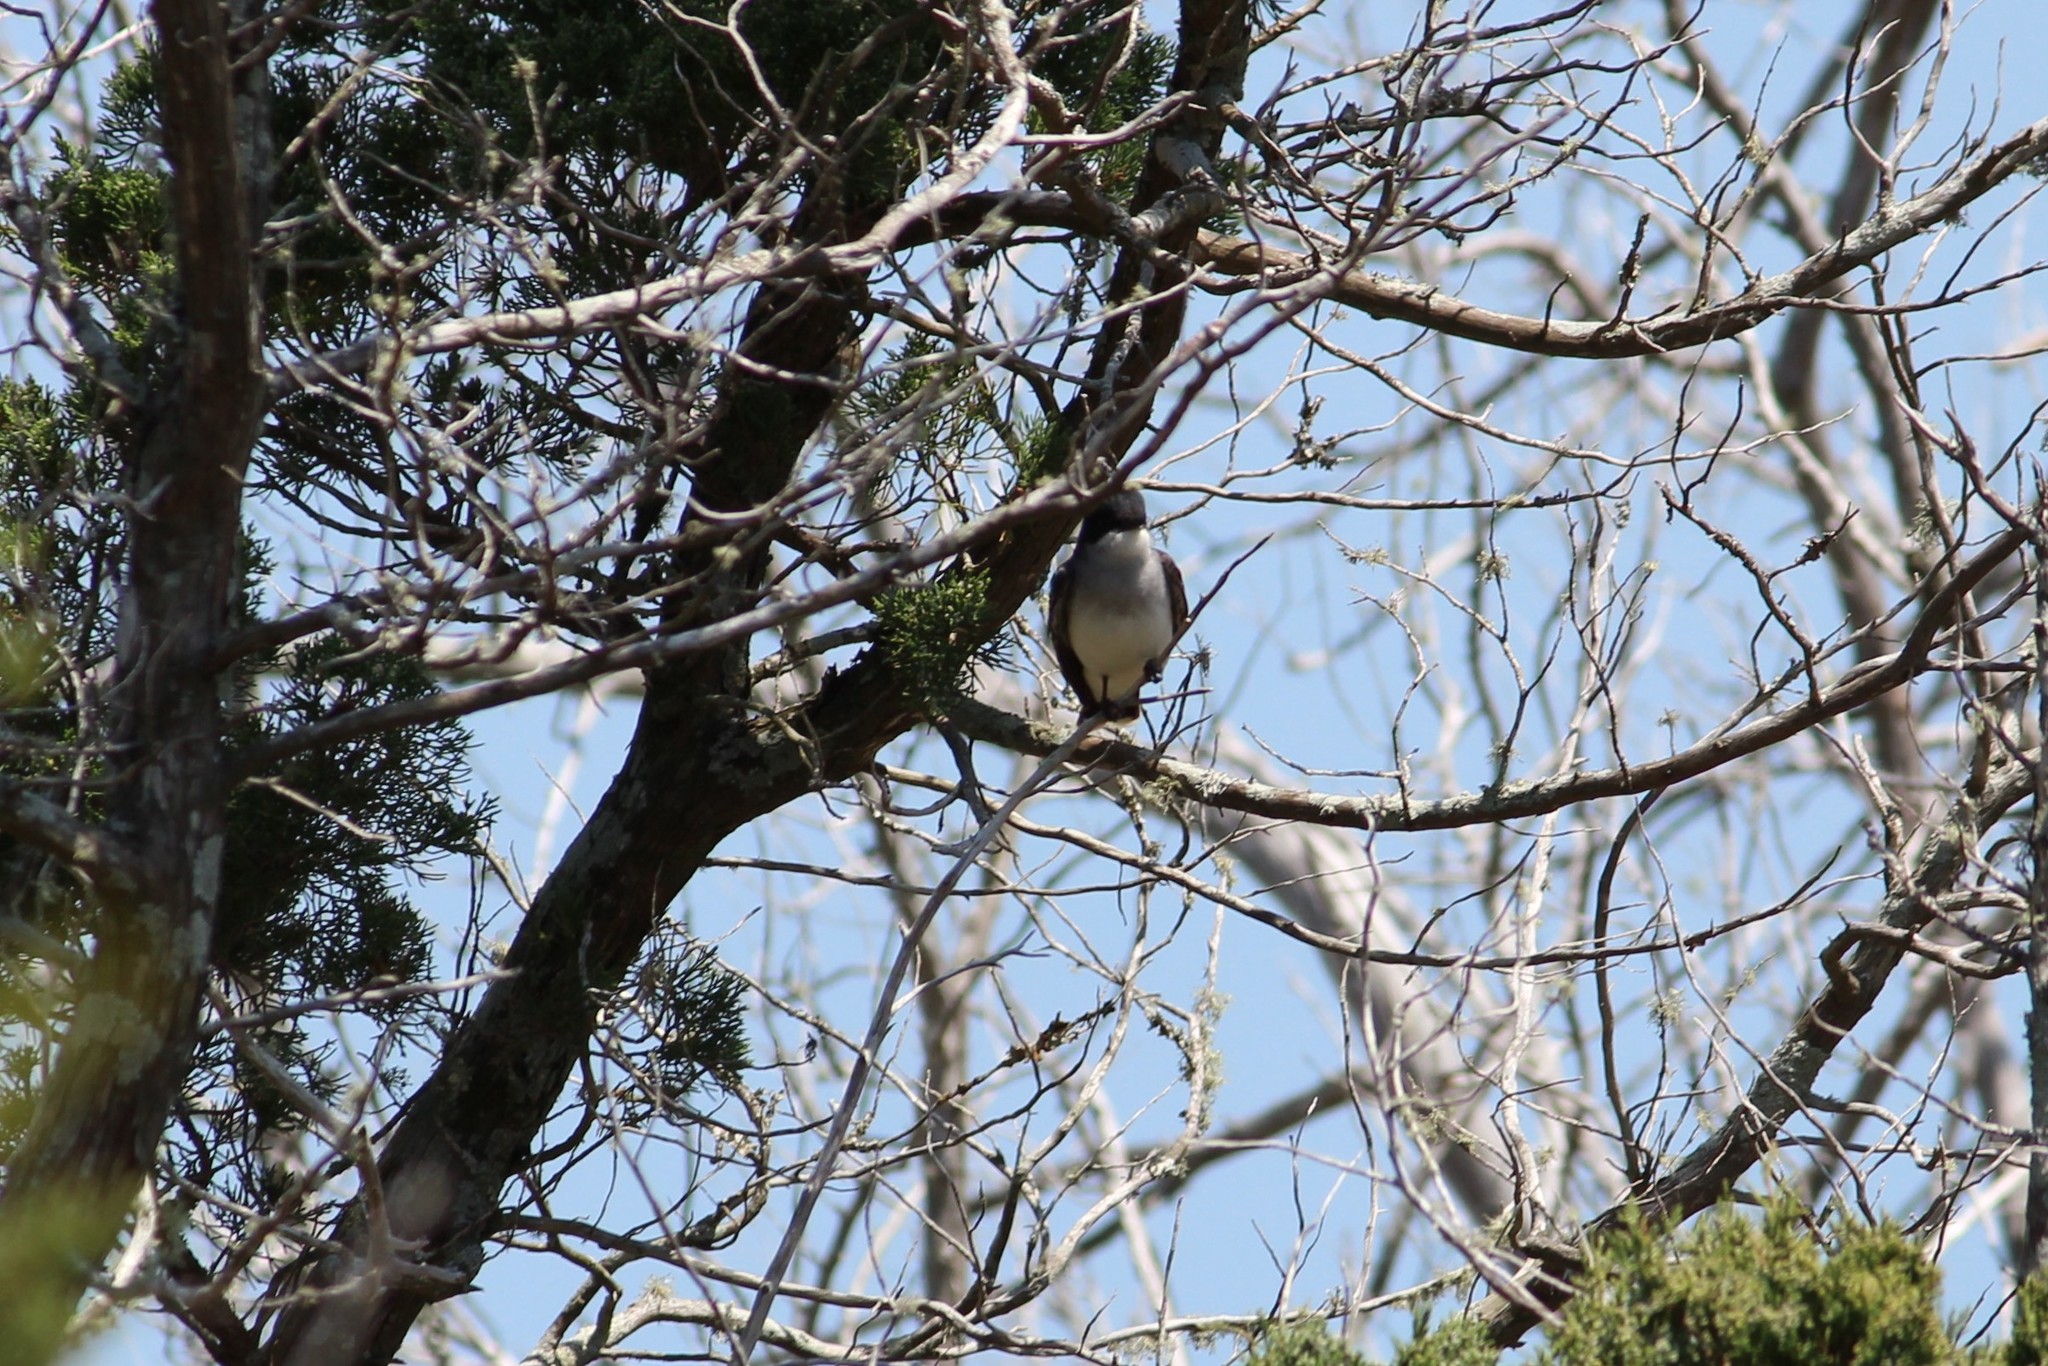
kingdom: Animalia
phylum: Chordata
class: Aves
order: Passeriformes
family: Tyrannidae
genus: Tyrannus
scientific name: Tyrannus tyrannus
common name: Eastern kingbird
